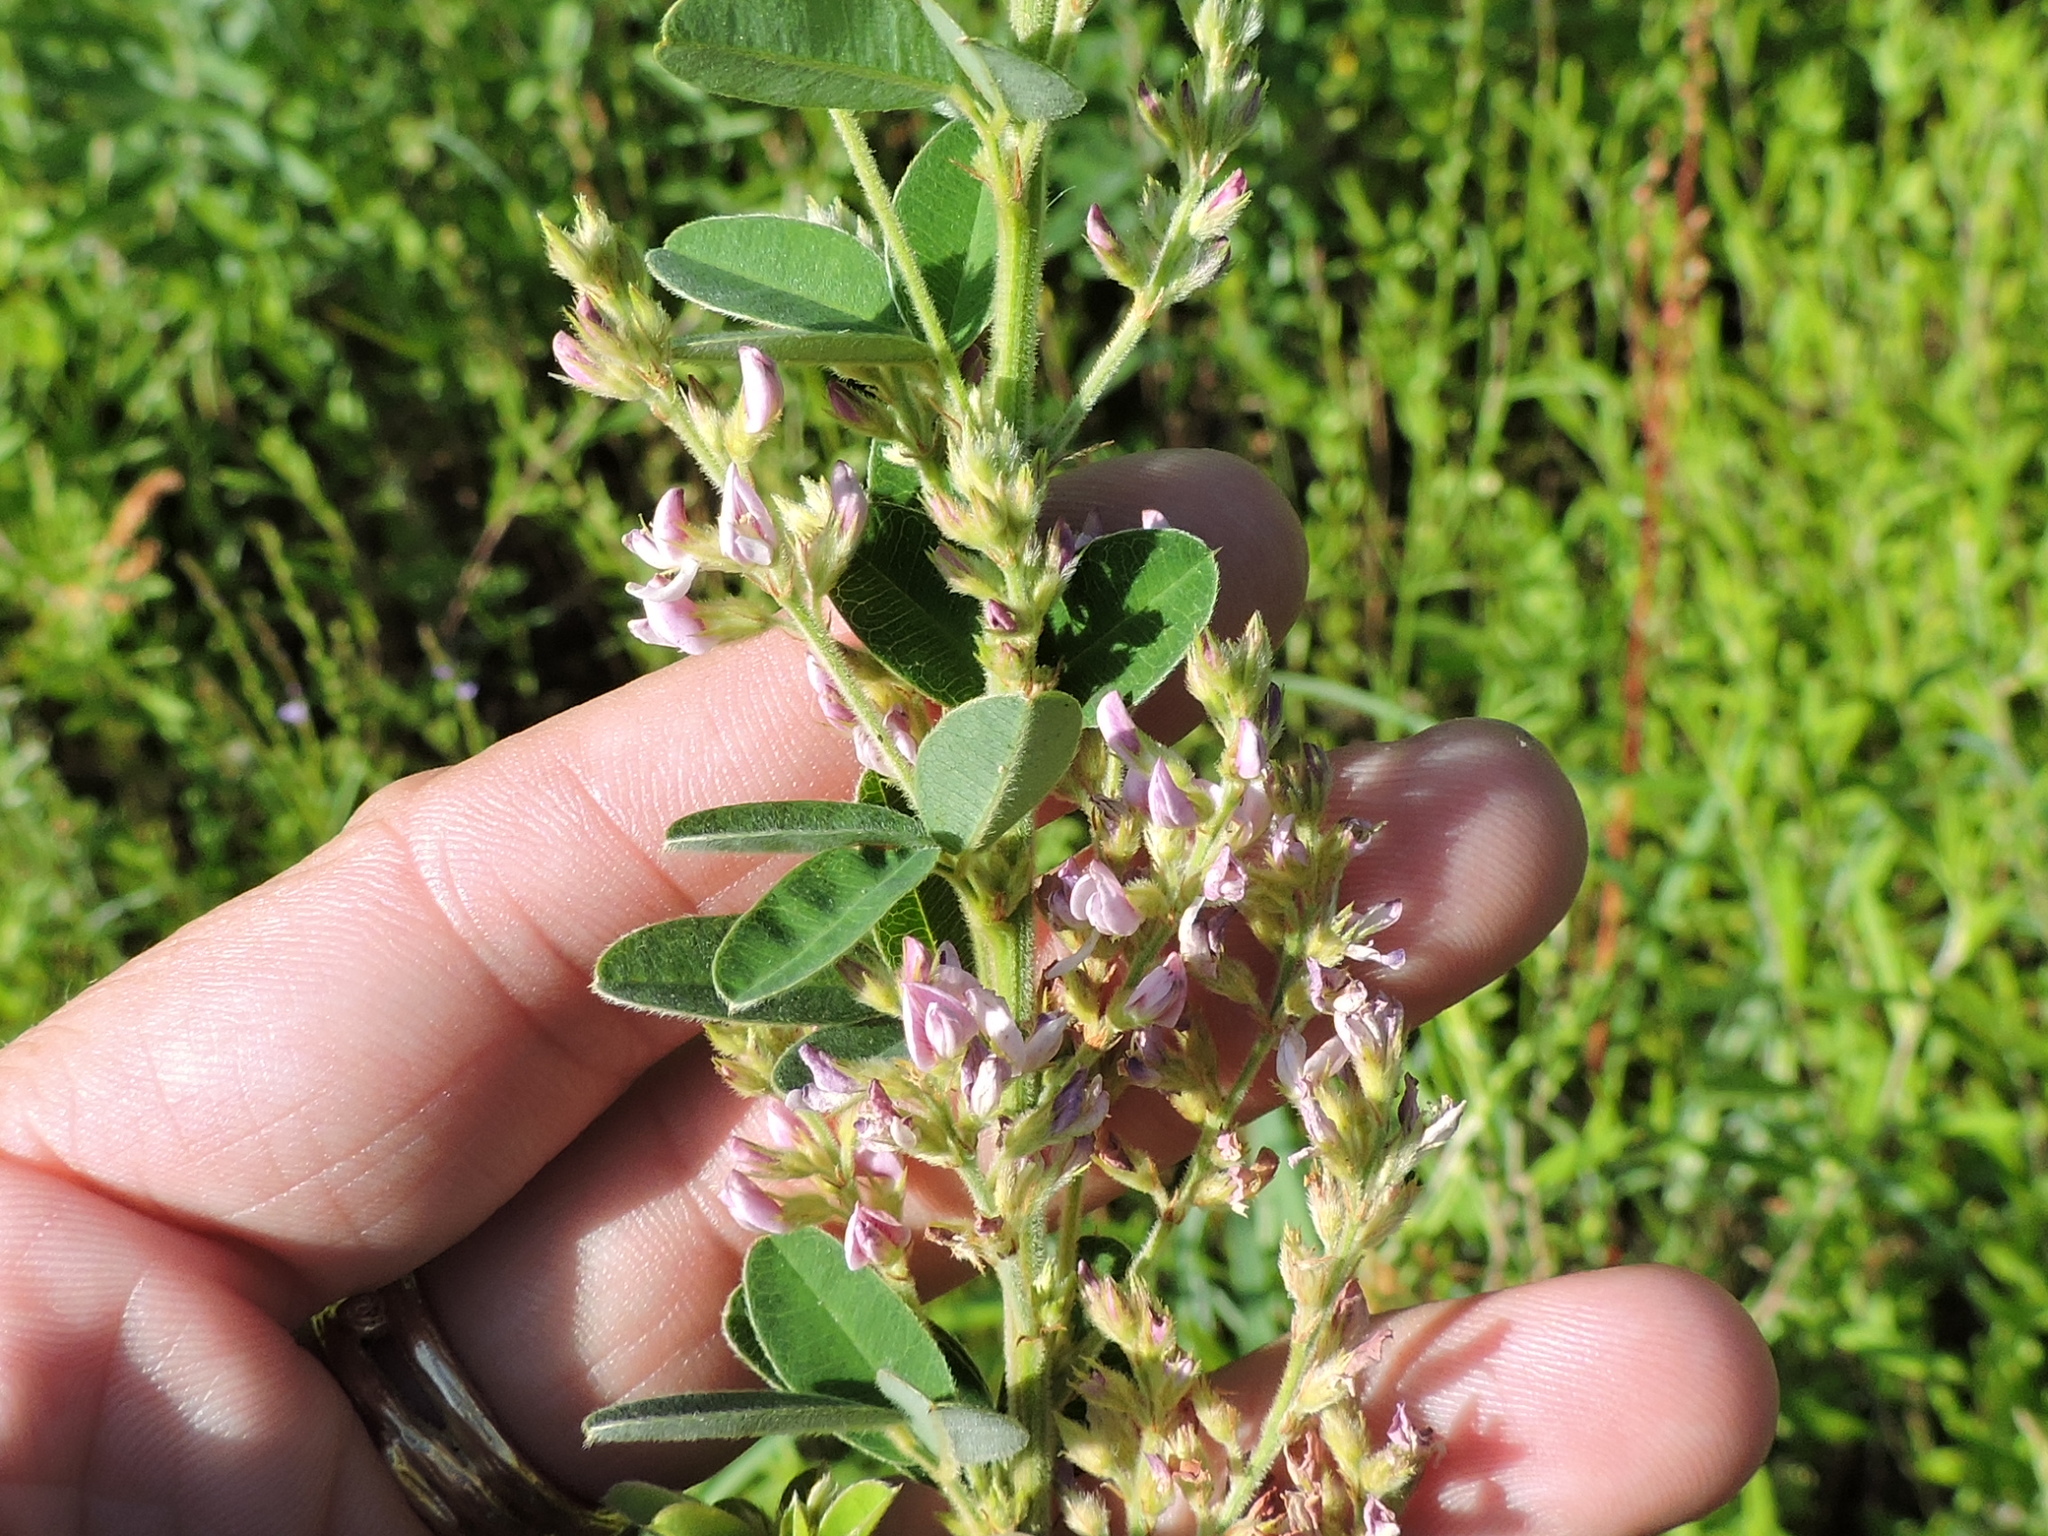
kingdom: Plantae
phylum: Tracheophyta
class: Magnoliopsida
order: Fabales
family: Fabaceae
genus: Lespedeza
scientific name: Lespedeza stuevei
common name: Tall bush-clover
